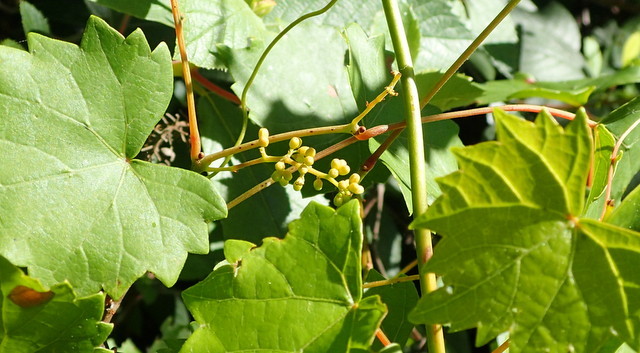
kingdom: Plantae
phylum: Tracheophyta
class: Magnoliopsida
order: Vitales
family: Vitaceae
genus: Vitis
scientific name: Vitis rotundifolia
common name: Muscadine grape
